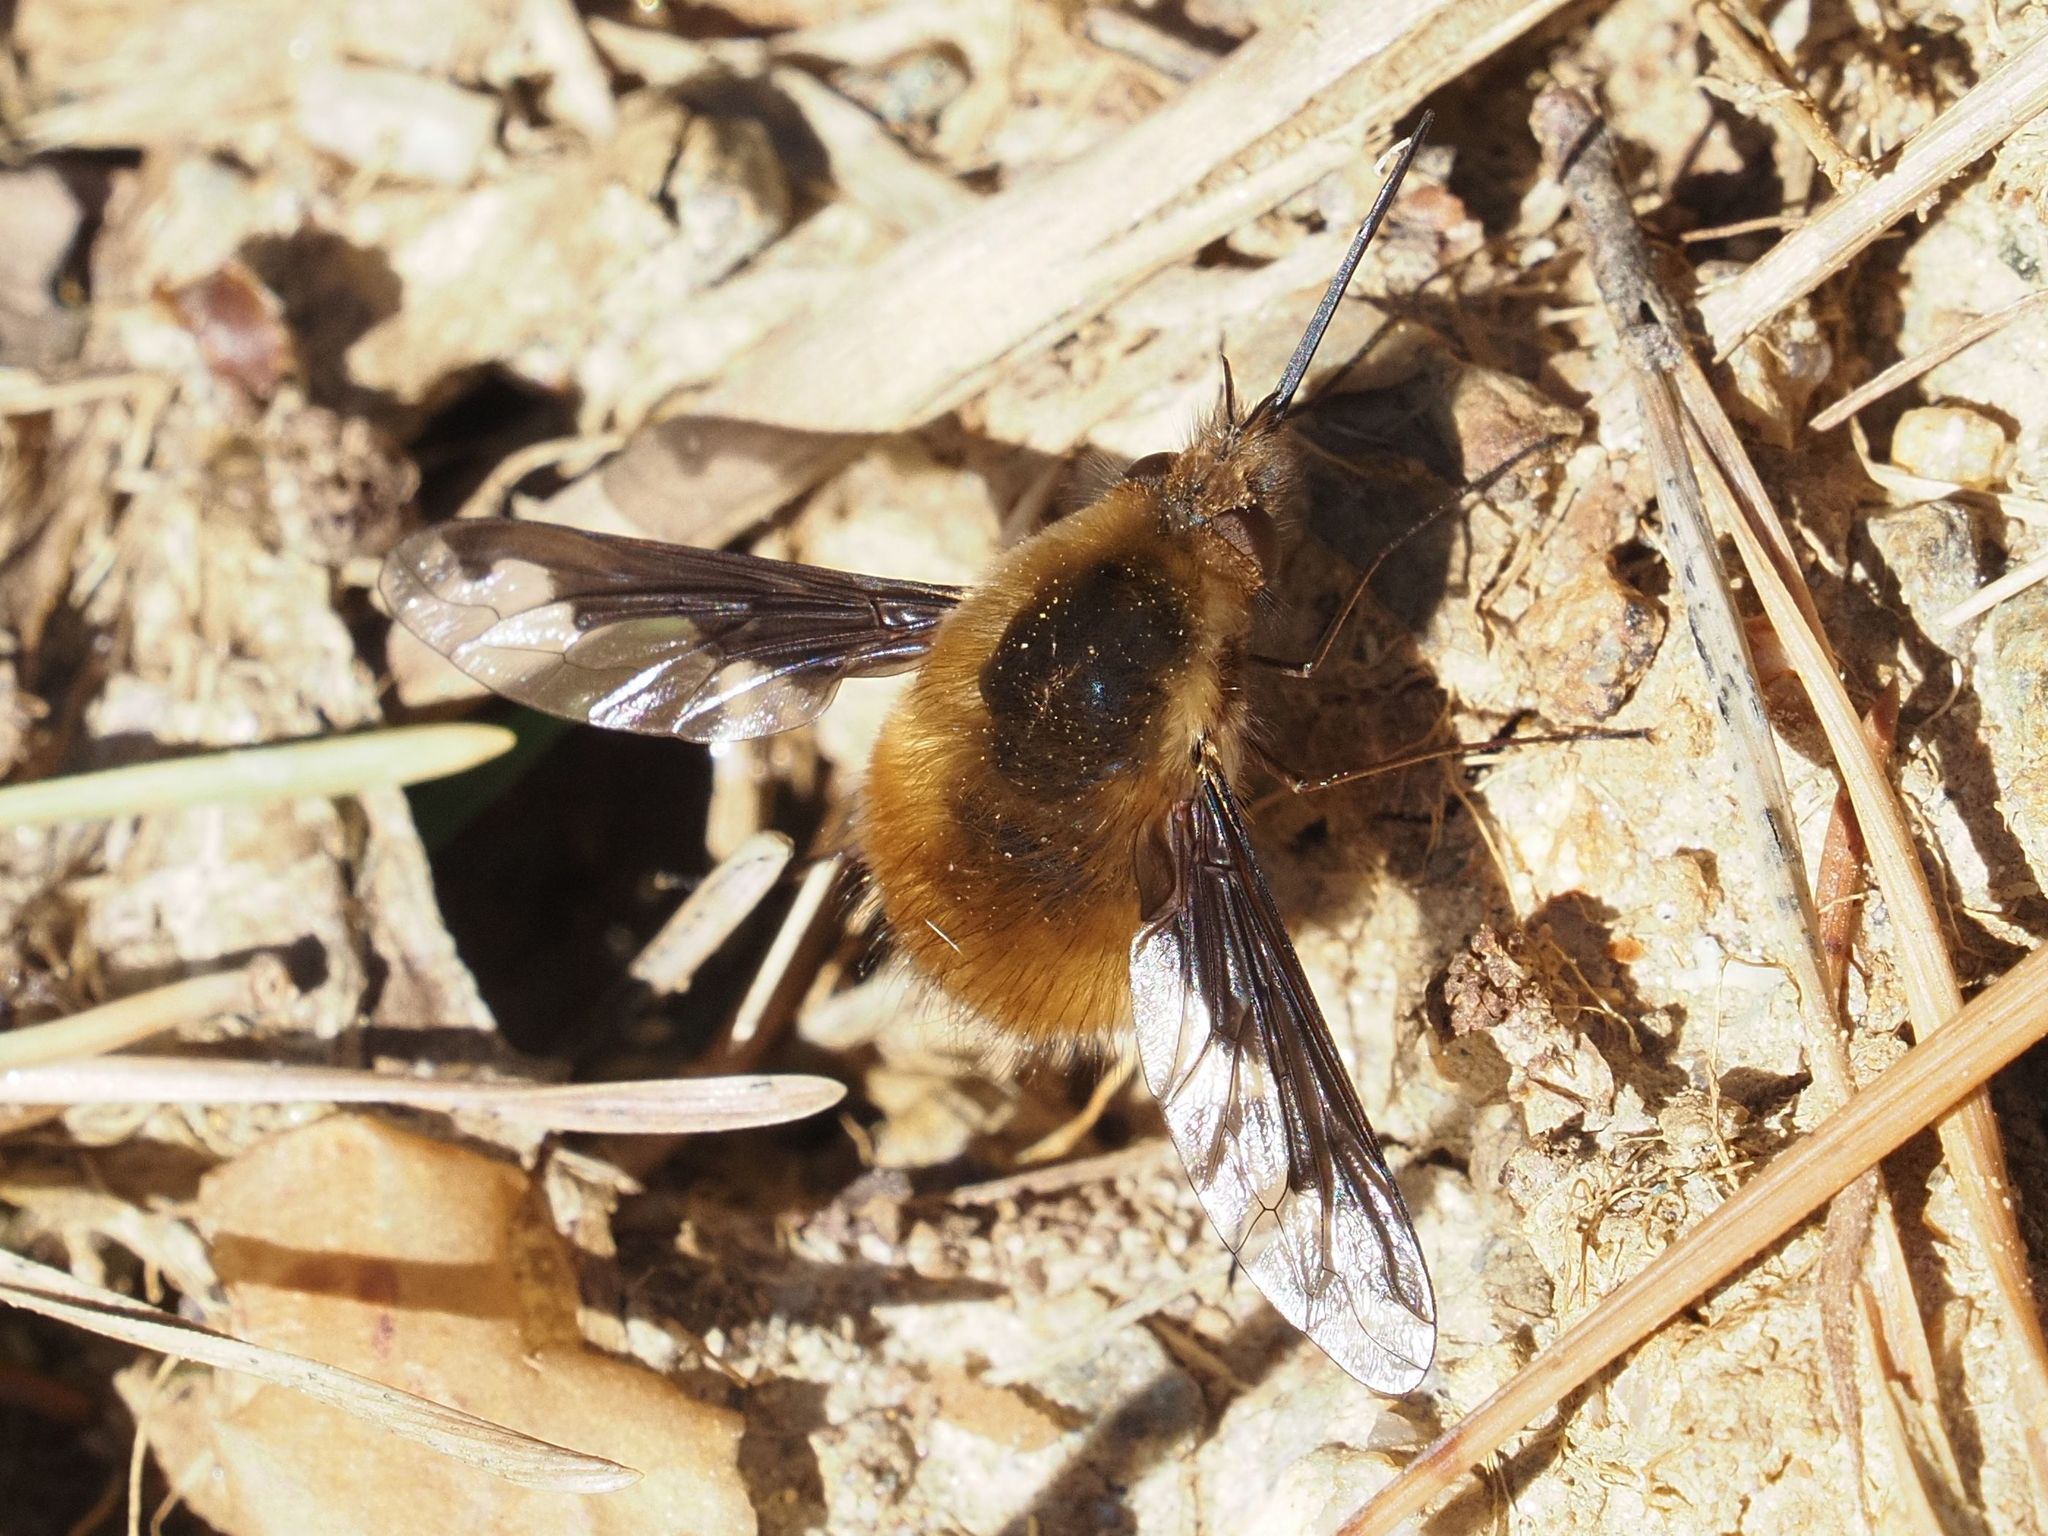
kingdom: Animalia
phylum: Arthropoda
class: Insecta
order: Diptera
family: Bombyliidae
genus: Bombylius
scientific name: Bombylius major
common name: Bee fly
